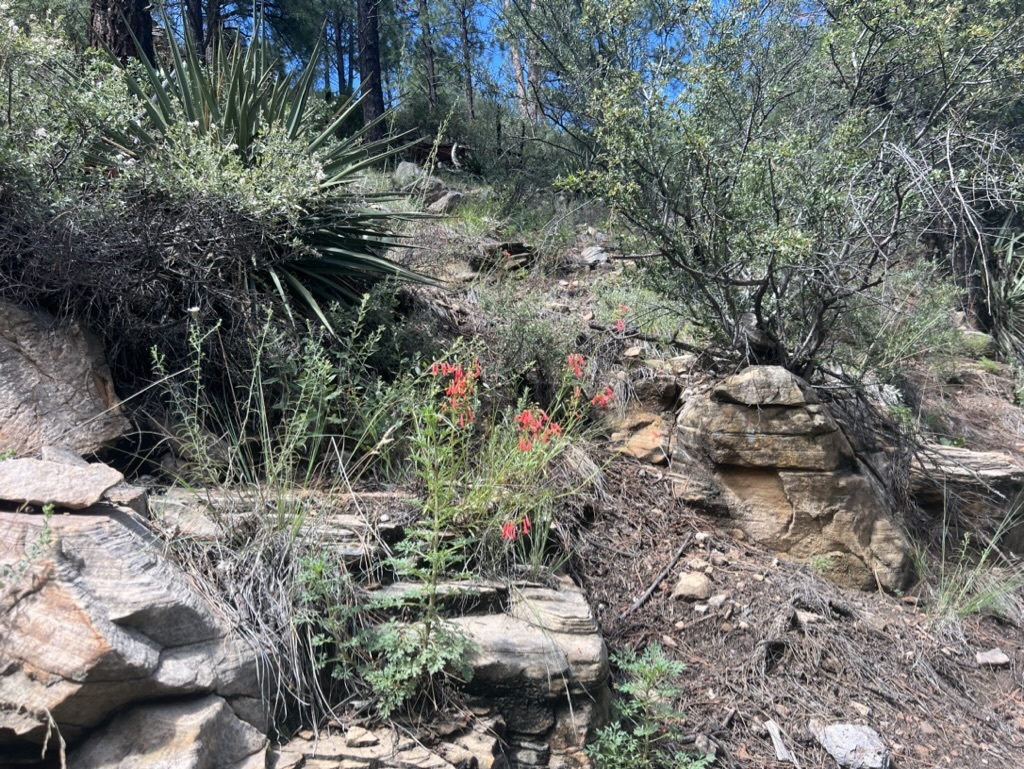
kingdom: Plantae
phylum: Tracheophyta
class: Magnoliopsida
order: Lamiales
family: Plantaginaceae
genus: Penstemon
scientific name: Penstemon rostriflorus
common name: Bridges's penstemon
